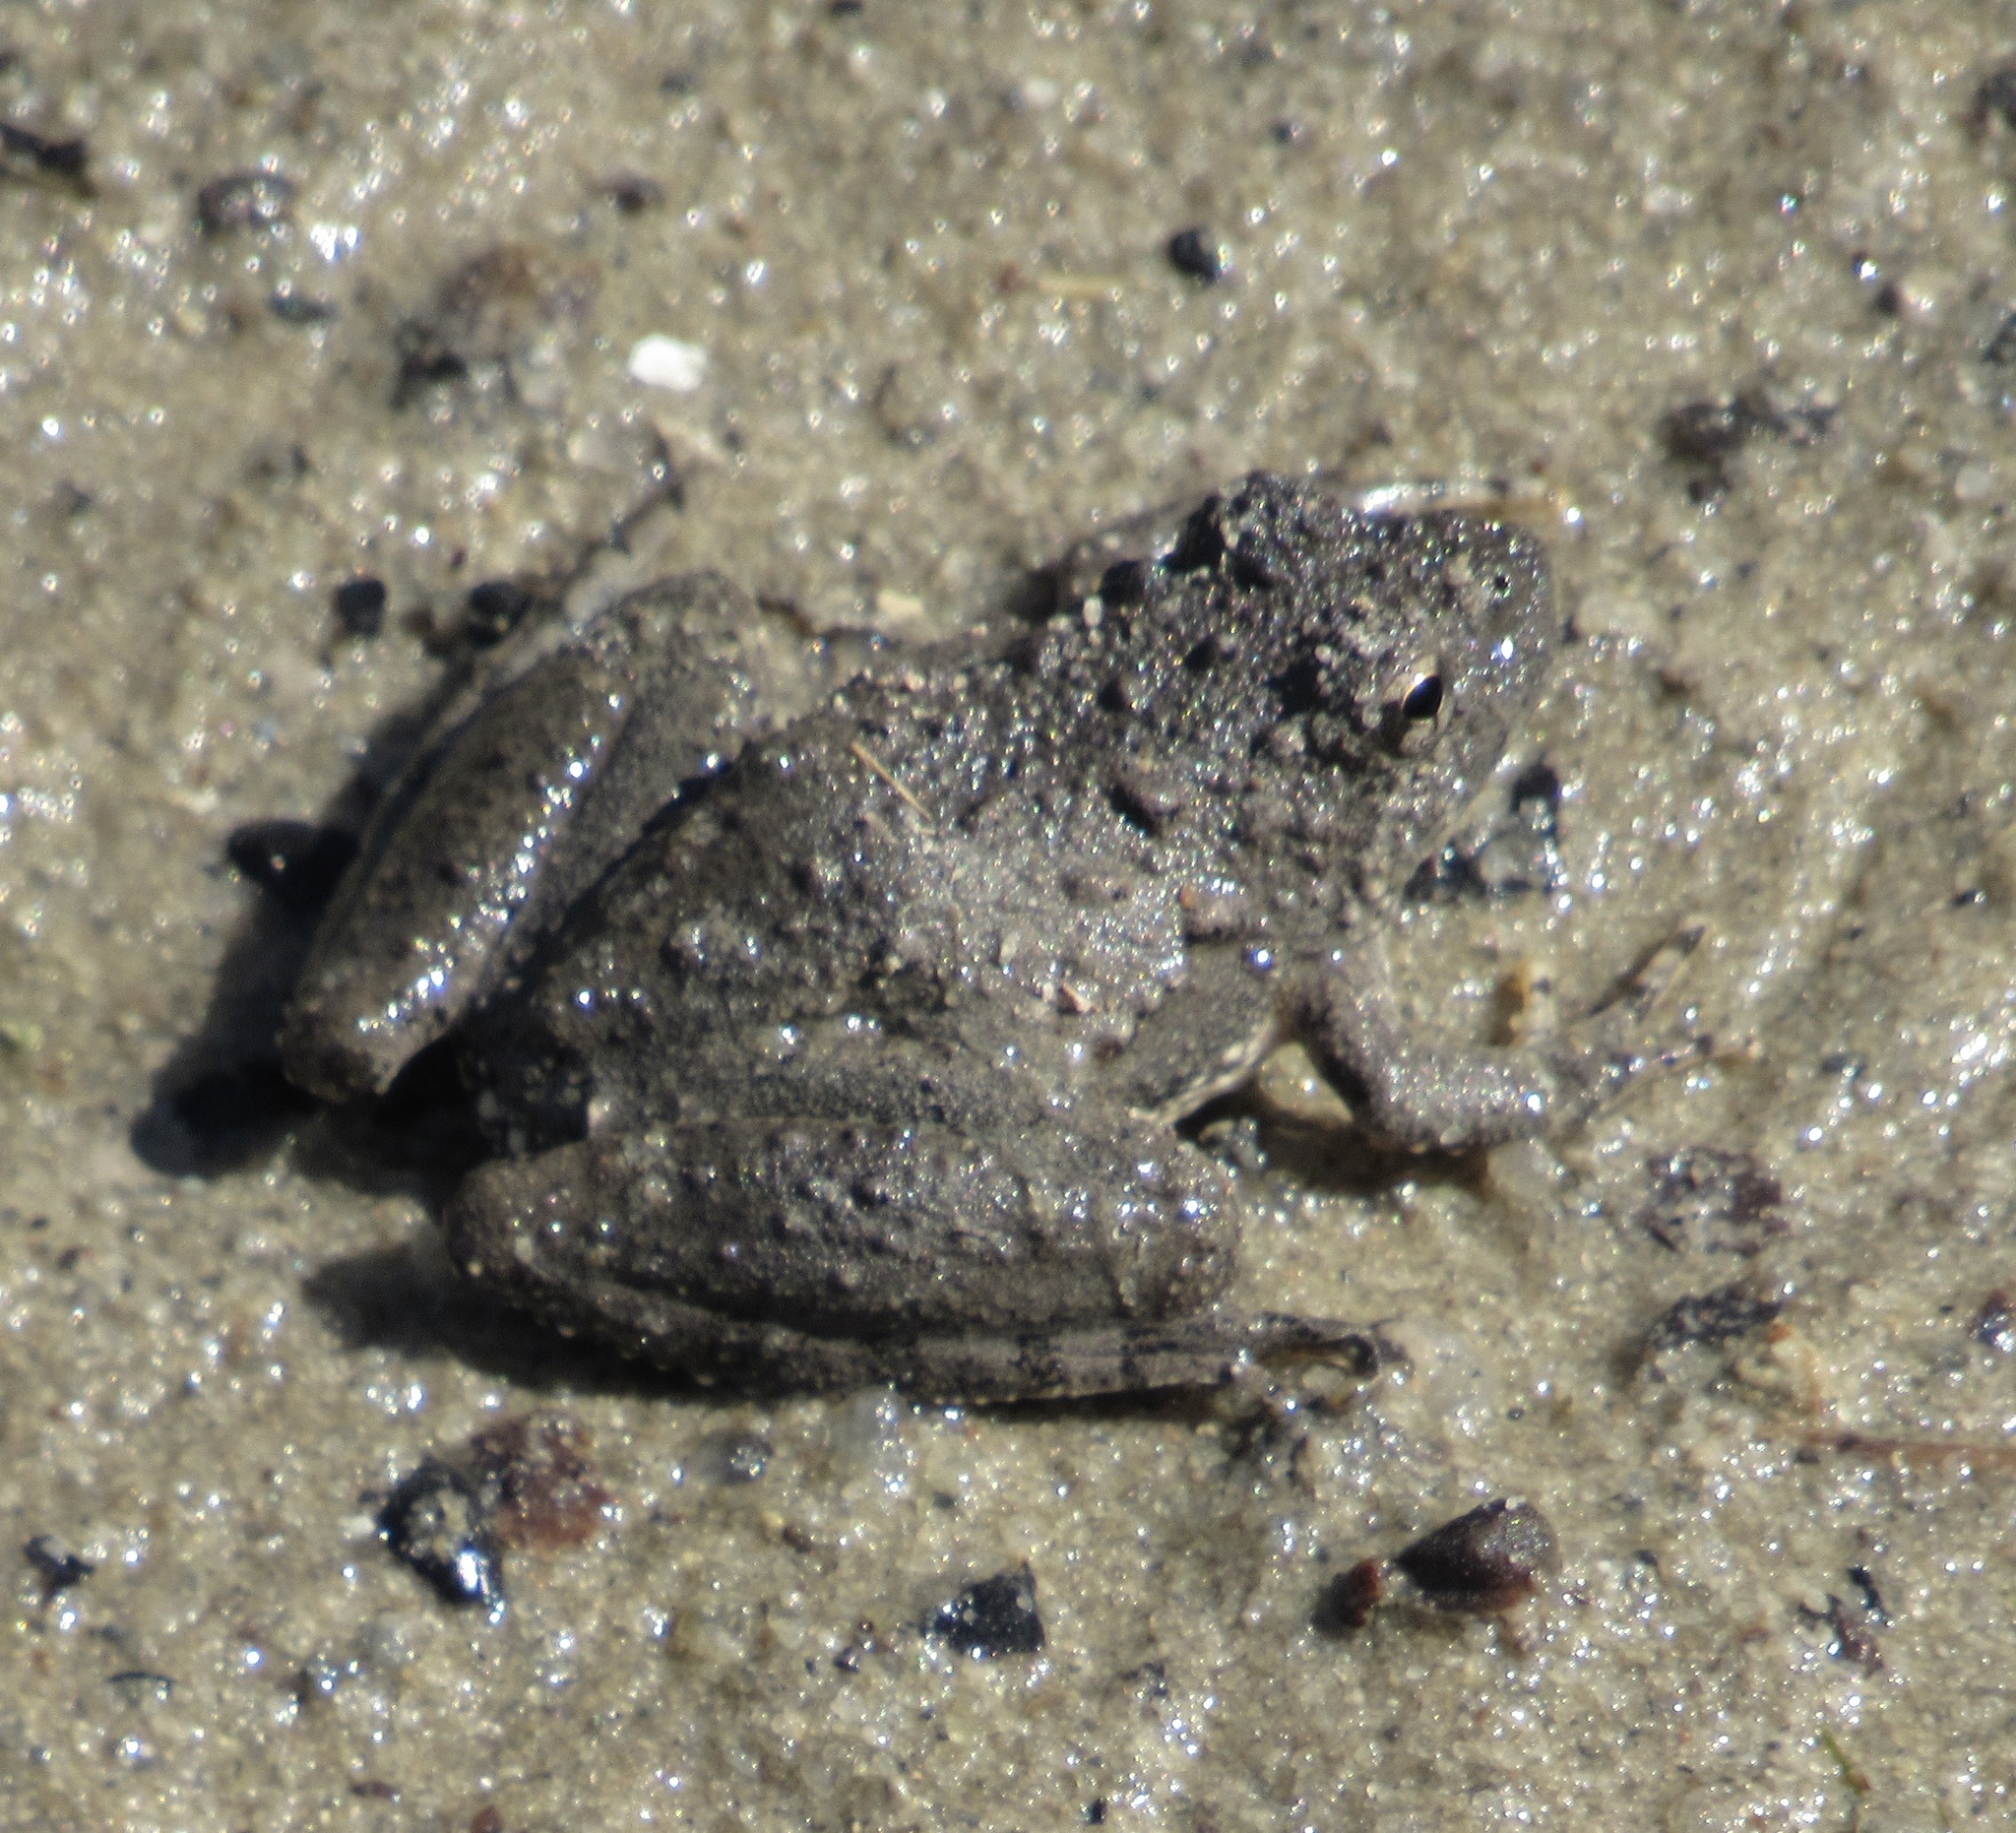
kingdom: Animalia
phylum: Chordata
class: Amphibia
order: Anura
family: Hylidae
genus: Acris
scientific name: Acris blanchardi
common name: Blanchard's cricket frog
